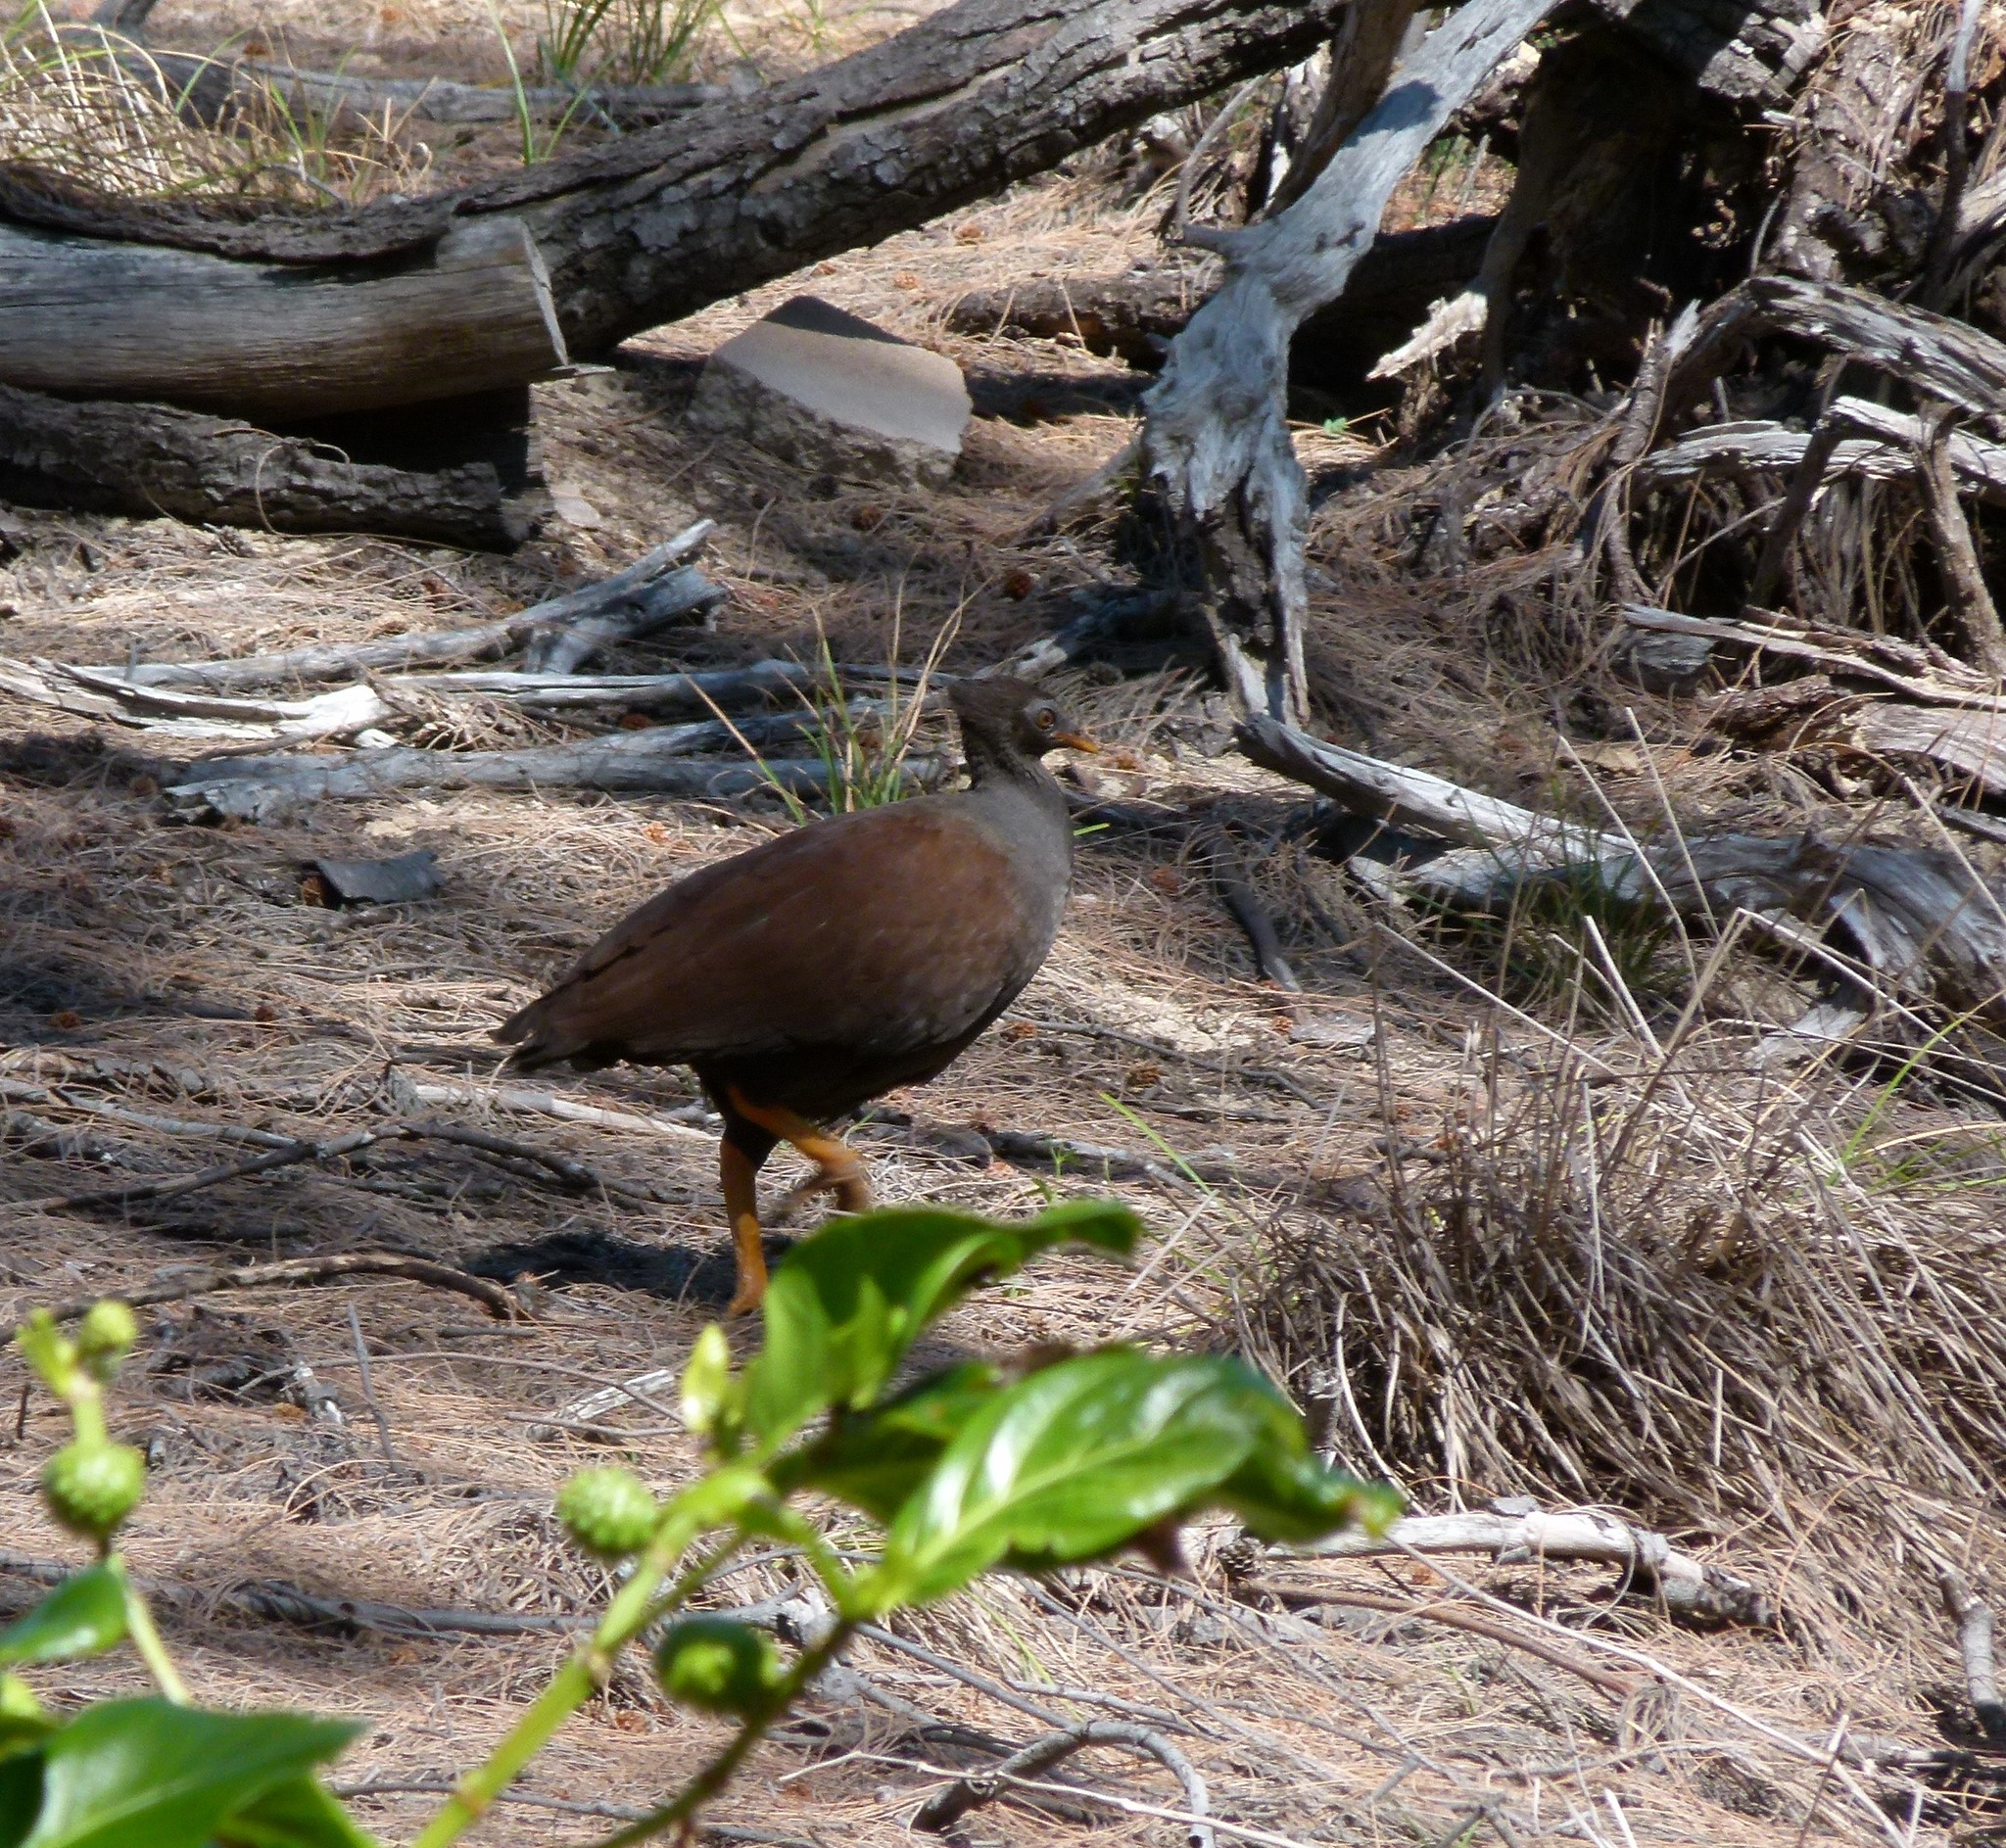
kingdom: Animalia
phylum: Chordata
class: Aves
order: Galliformes
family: Megapodiidae
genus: Megapodius
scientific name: Megapodius reinwardt
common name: Orange-footed scrubfowl
